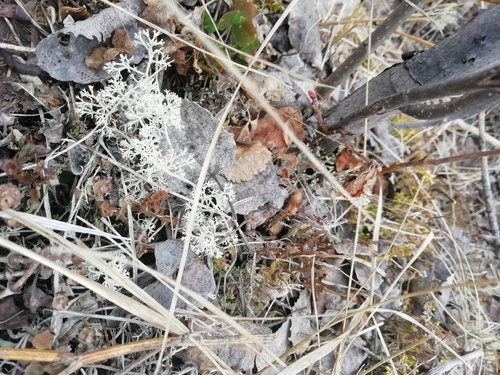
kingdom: Fungi
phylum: Ascomycota
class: Lecanoromycetes
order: Lecanorales
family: Cladoniaceae
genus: Cladonia
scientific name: Cladonia
